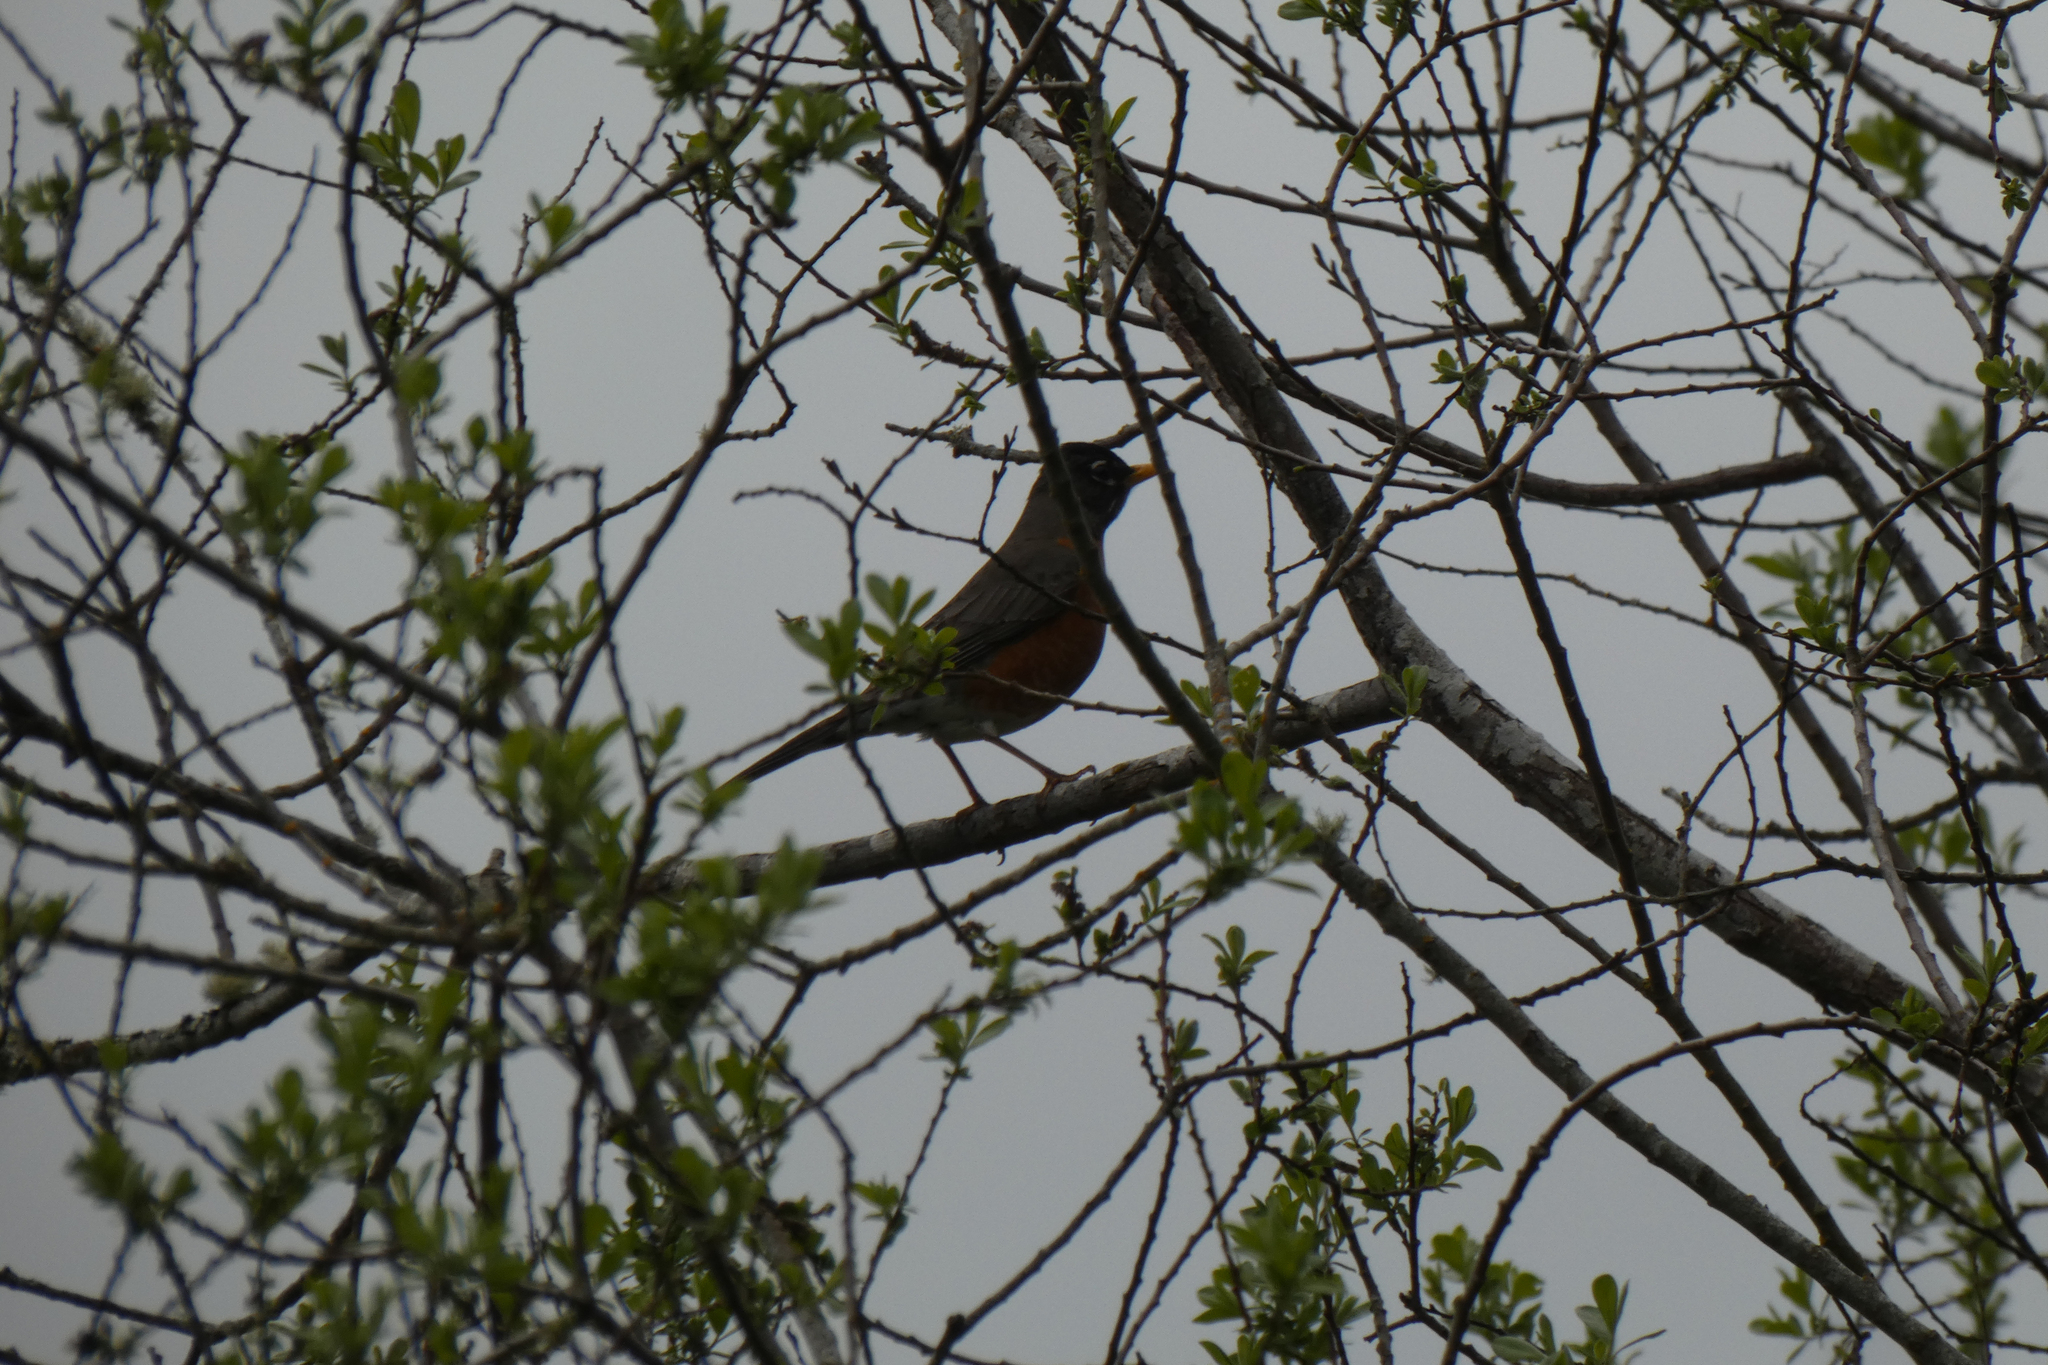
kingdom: Animalia
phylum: Chordata
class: Aves
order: Passeriformes
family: Turdidae
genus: Turdus
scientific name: Turdus migratorius
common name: American robin
